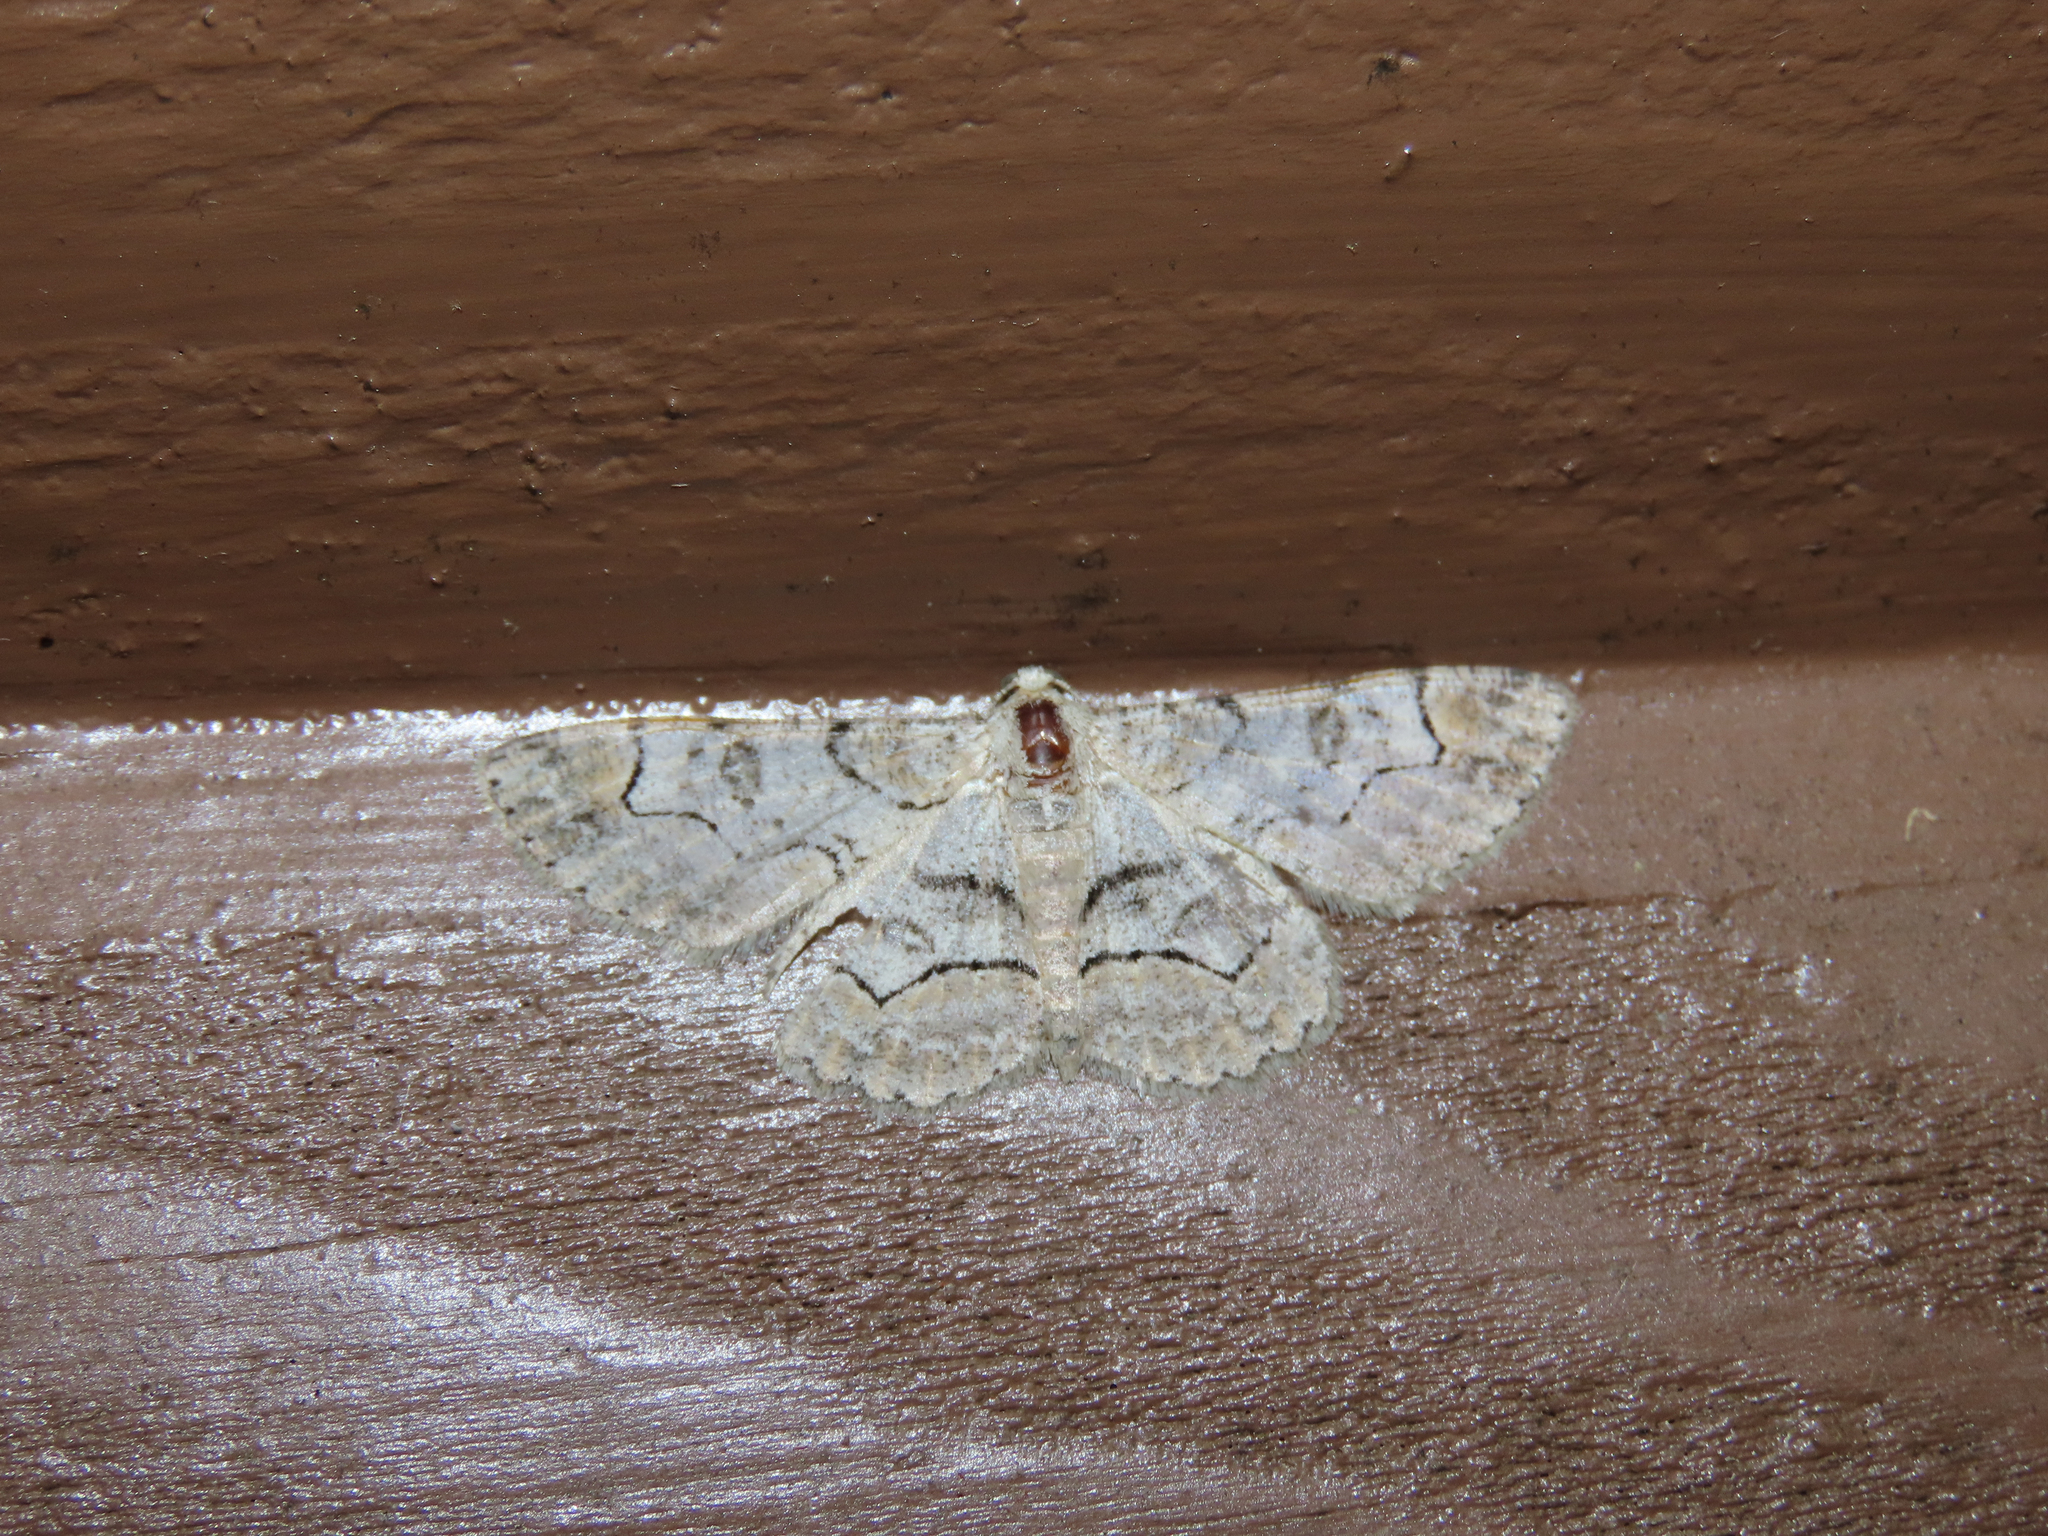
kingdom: Animalia
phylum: Arthropoda
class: Insecta
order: Lepidoptera
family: Geometridae
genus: Iridopsis
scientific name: Iridopsis larvaria
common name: Bent-line gray
